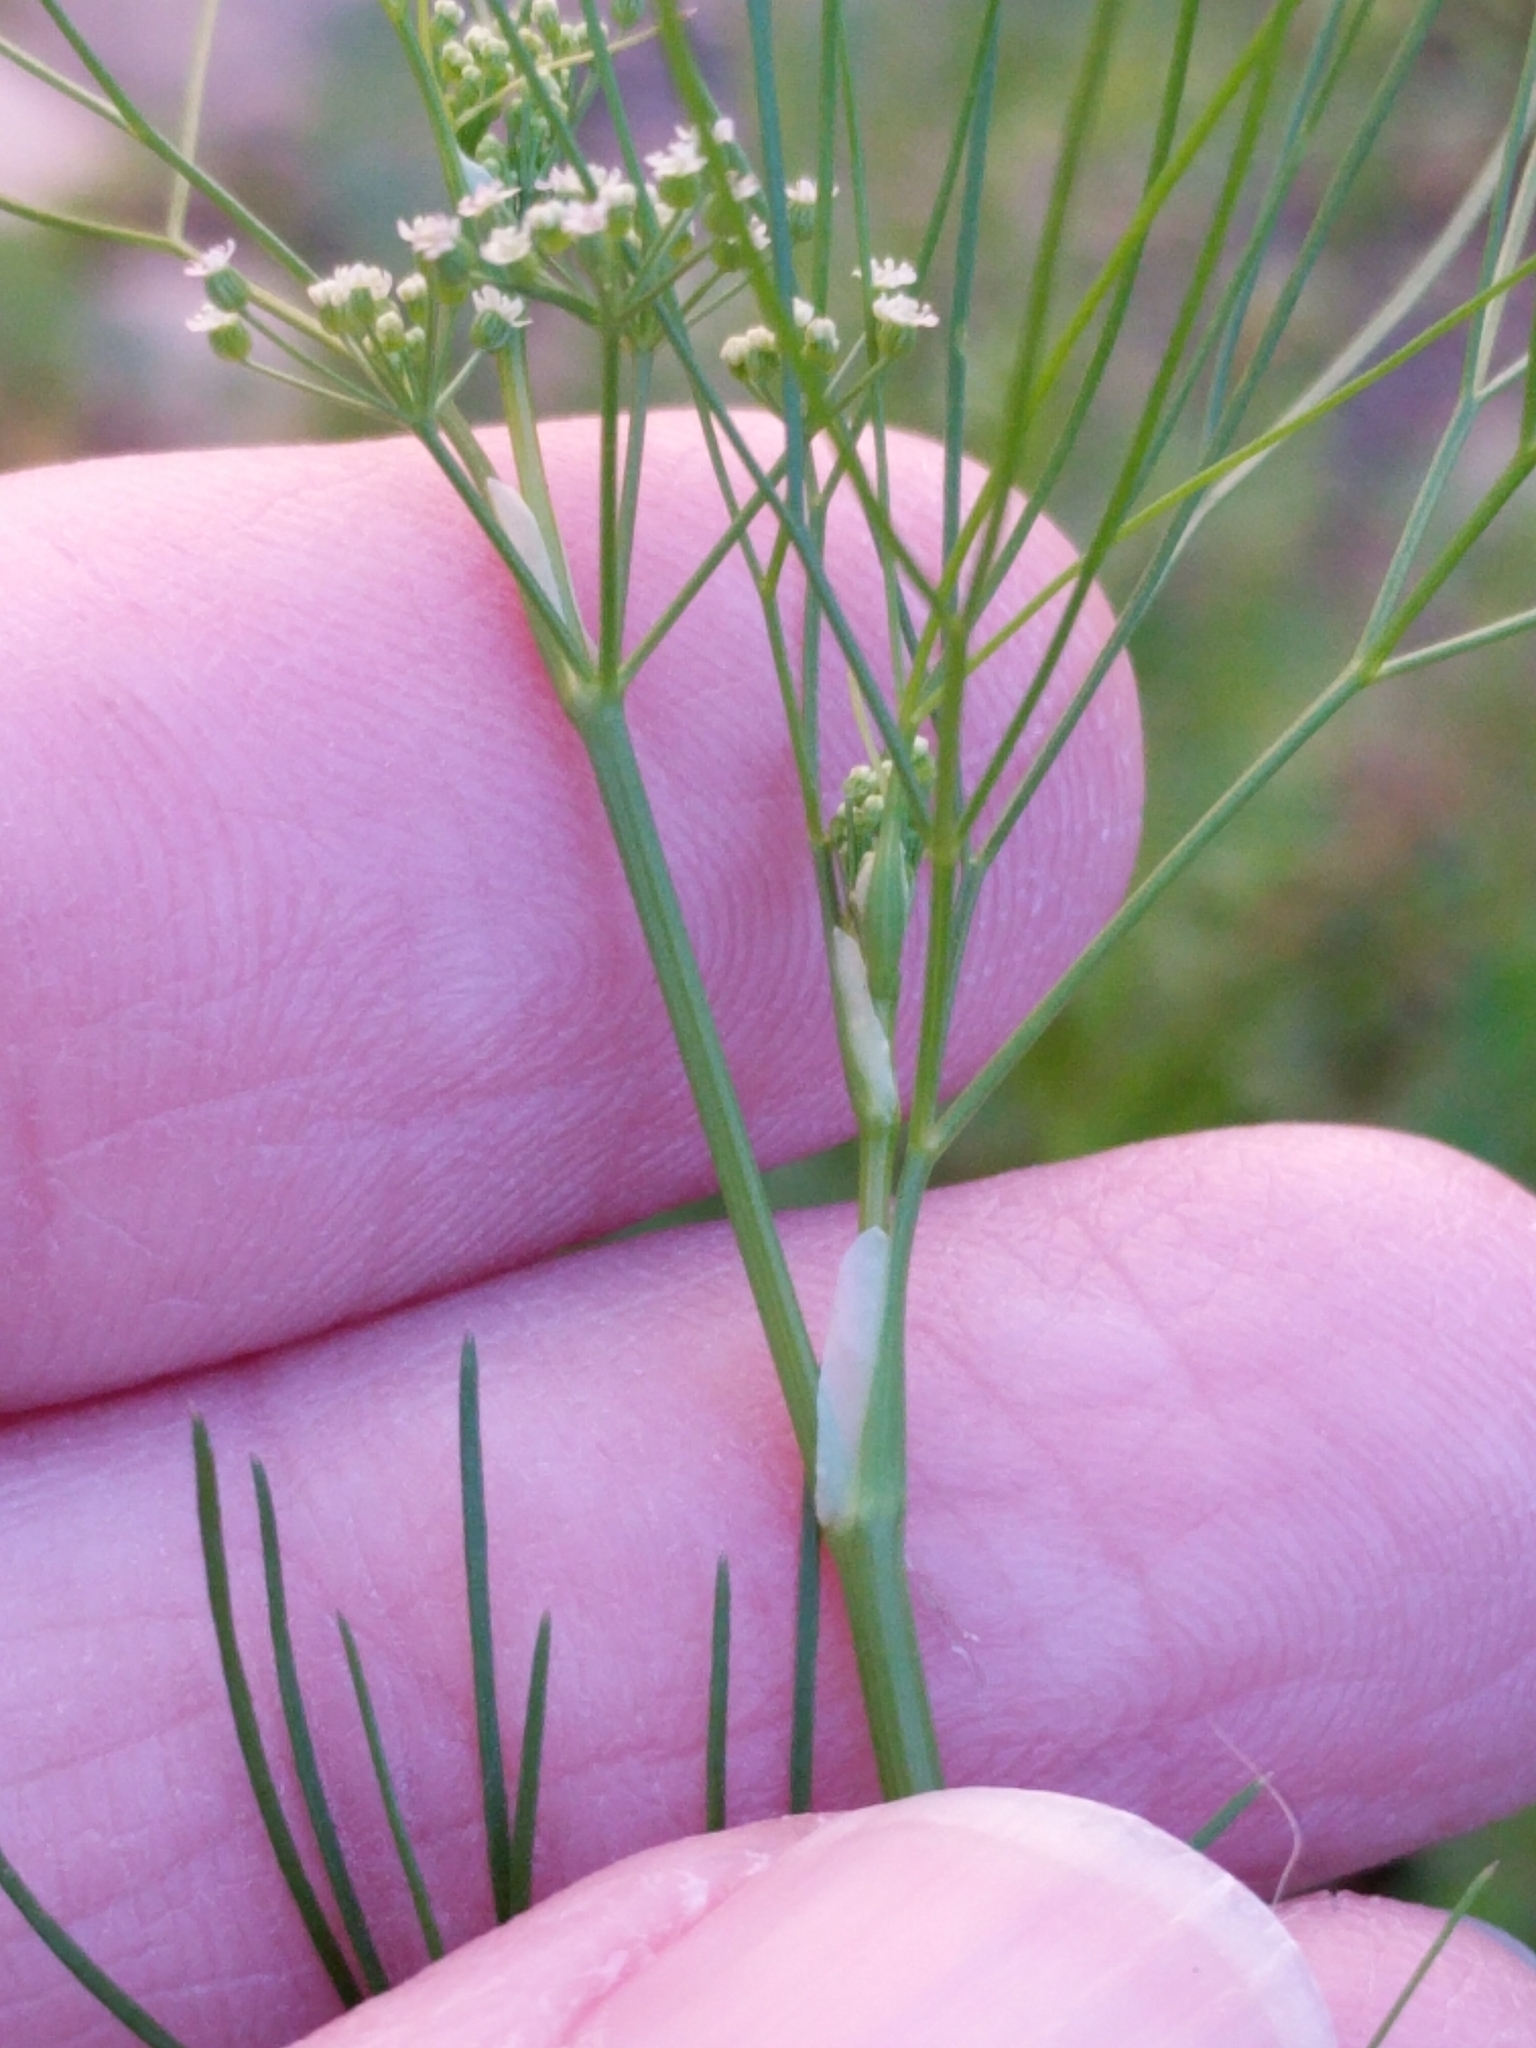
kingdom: Plantae
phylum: Tracheophyta
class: Magnoliopsida
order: Apiales
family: Apiaceae
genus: Cyclospermum
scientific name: Cyclospermum leptophyllum
